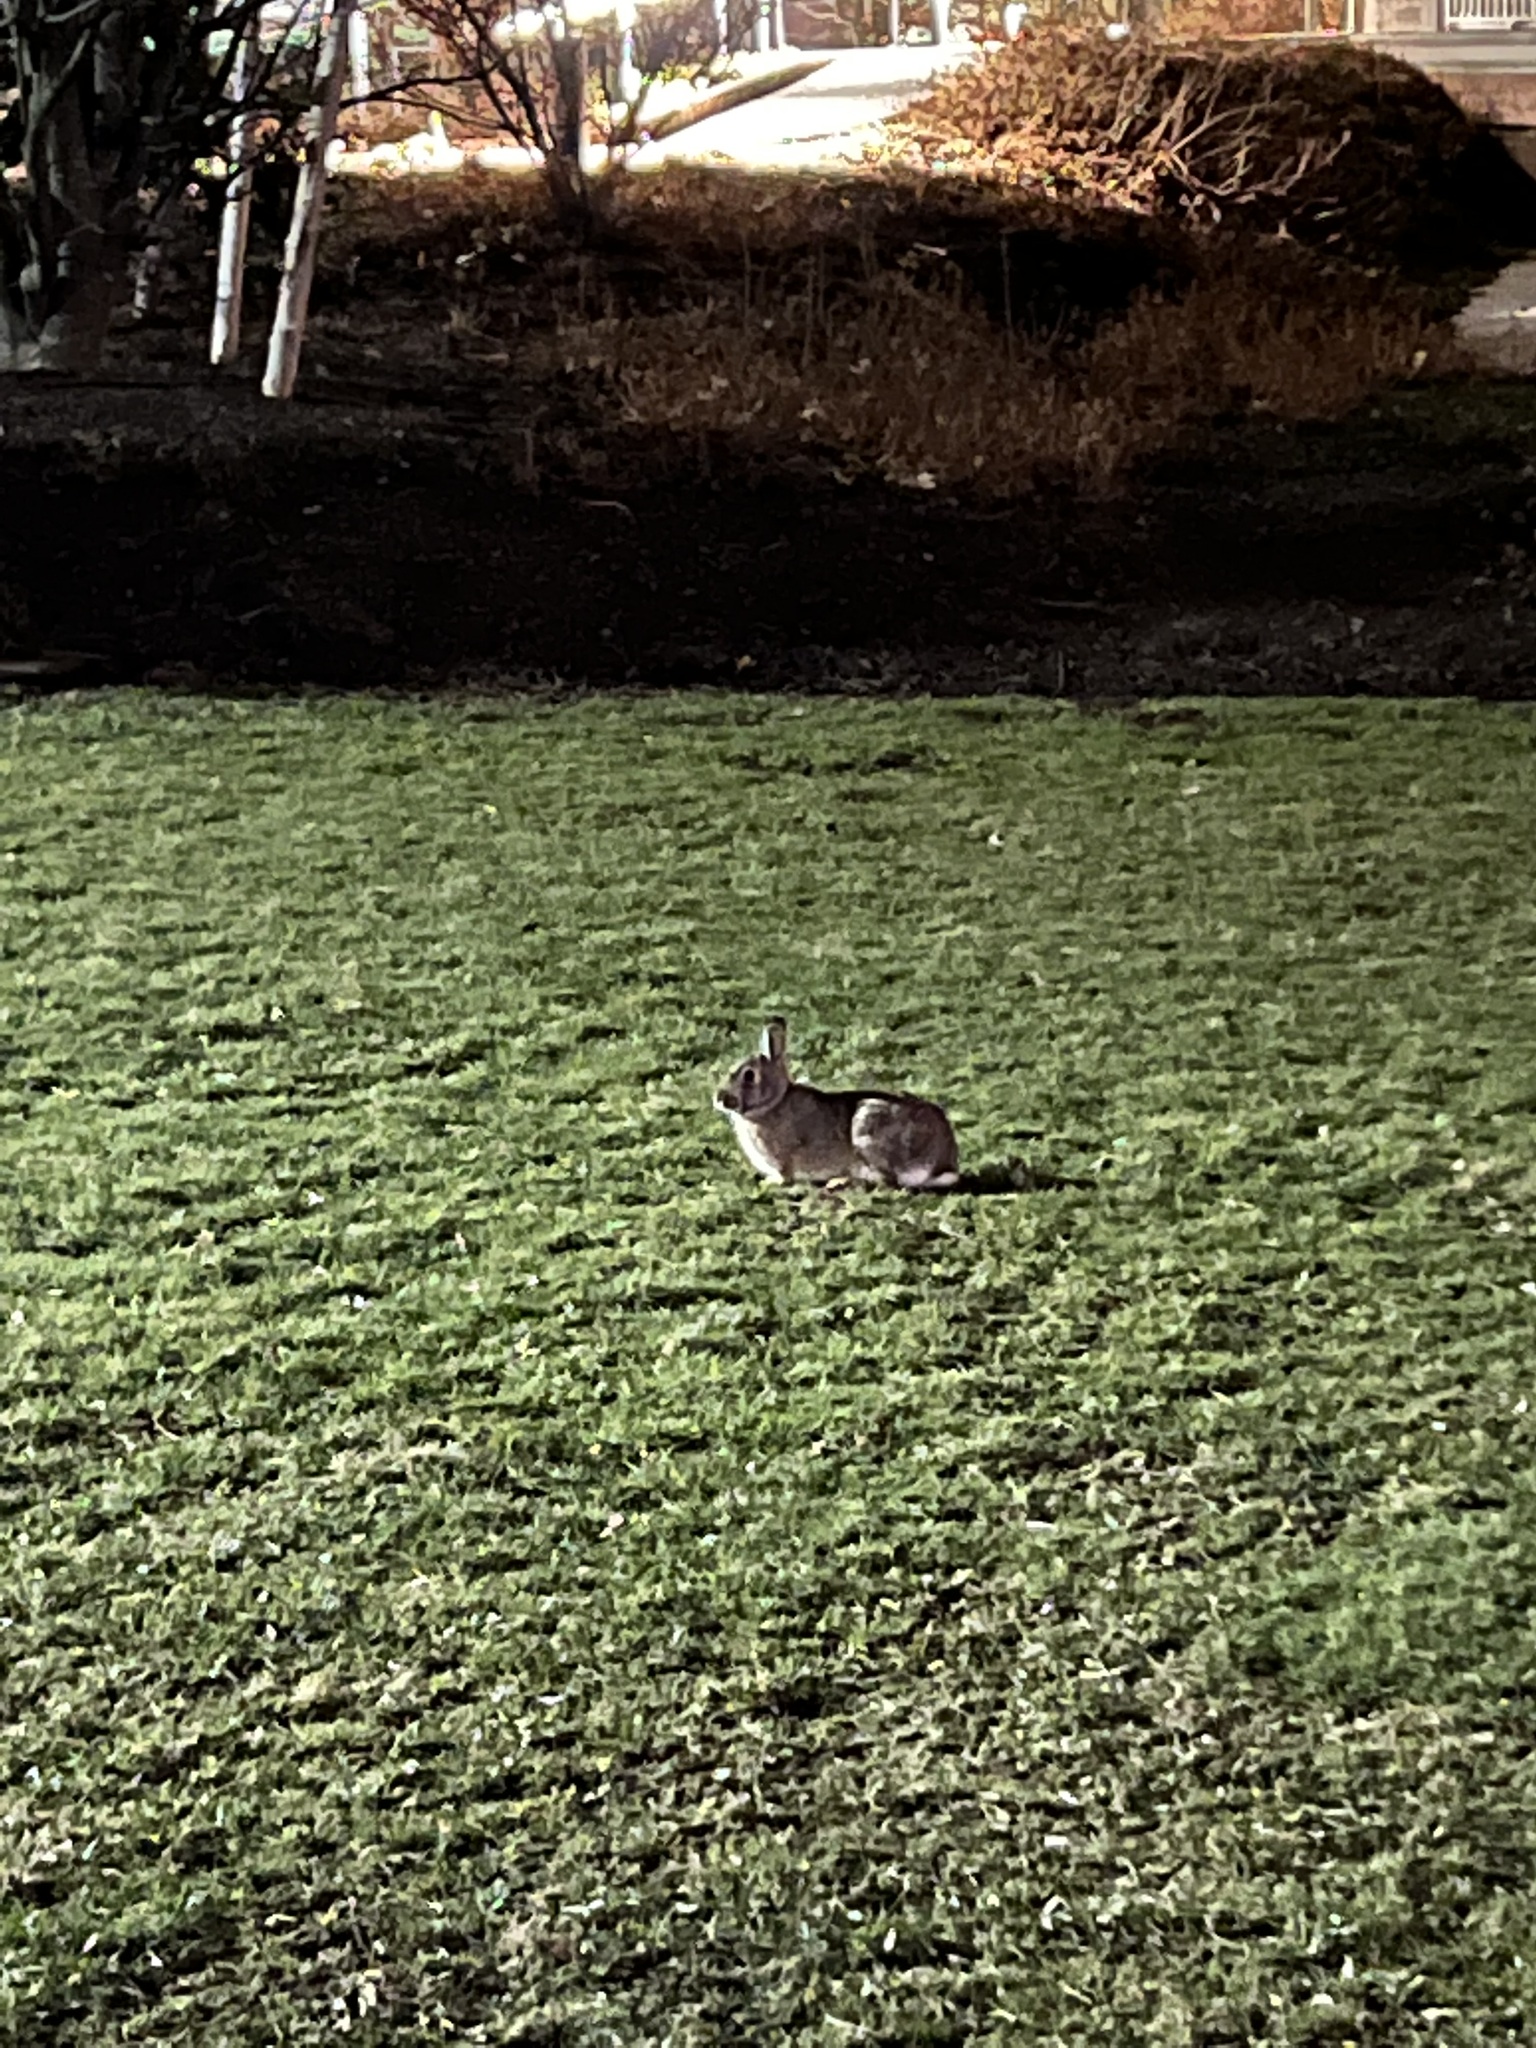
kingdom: Animalia
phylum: Chordata
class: Mammalia
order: Lagomorpha
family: Leporidae
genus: Sylvilagus
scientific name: Sylvilagus floridanus
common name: Eastern cottontail
